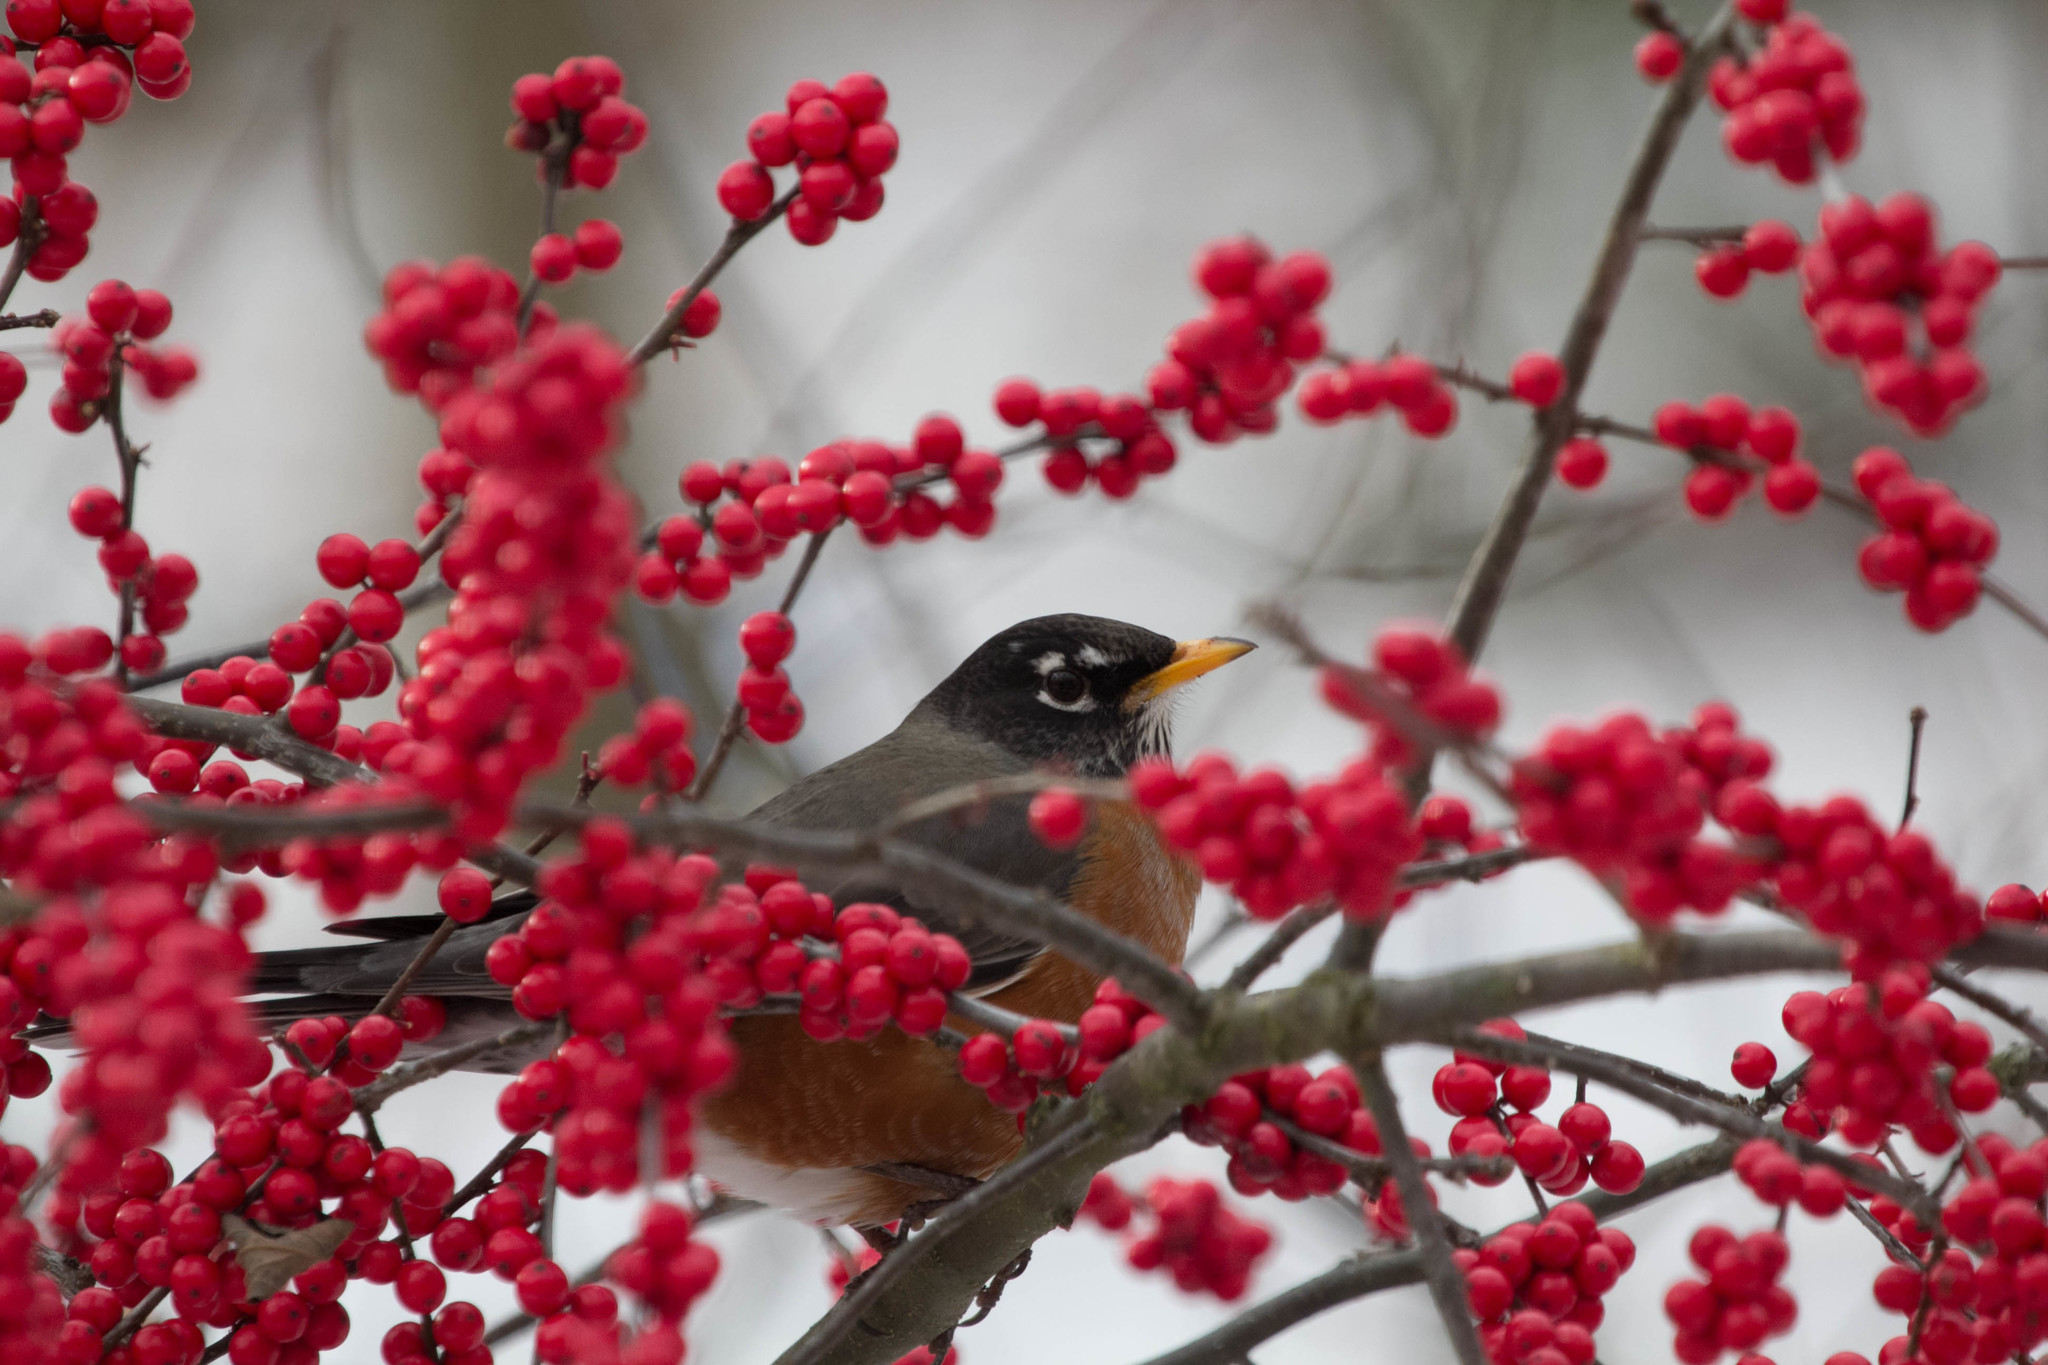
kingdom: Animalia
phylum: Chordata
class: Aves
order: Passeriformes
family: Turdidae
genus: Turdus
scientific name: Turdus migratorius
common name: American robin
